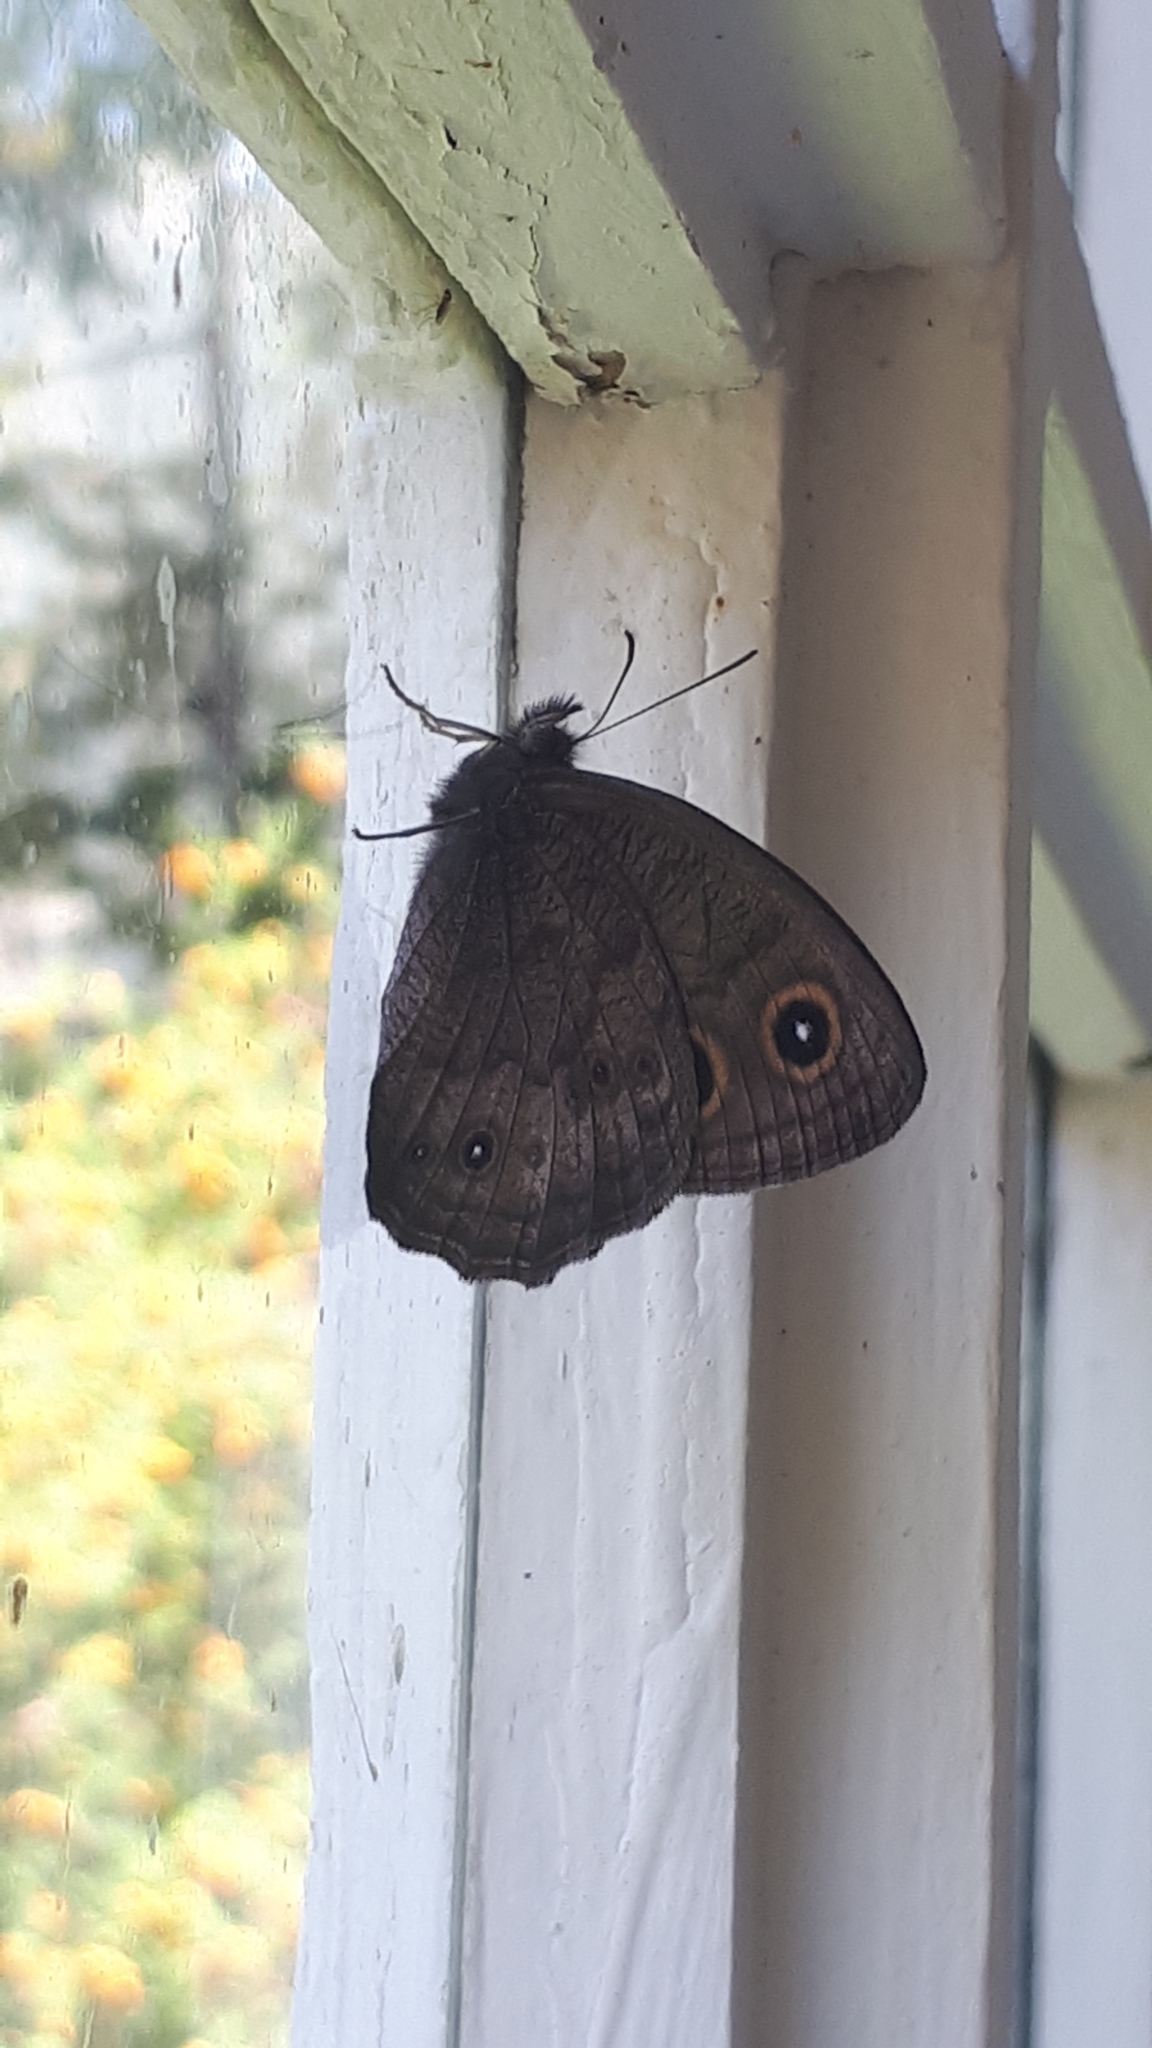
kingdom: Animalia
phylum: Arthropoda
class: Insecta
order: Lepidoptera
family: Nymphalidae
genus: Cercyonis
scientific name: Cercyonis pegala
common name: Common wood-nymph
